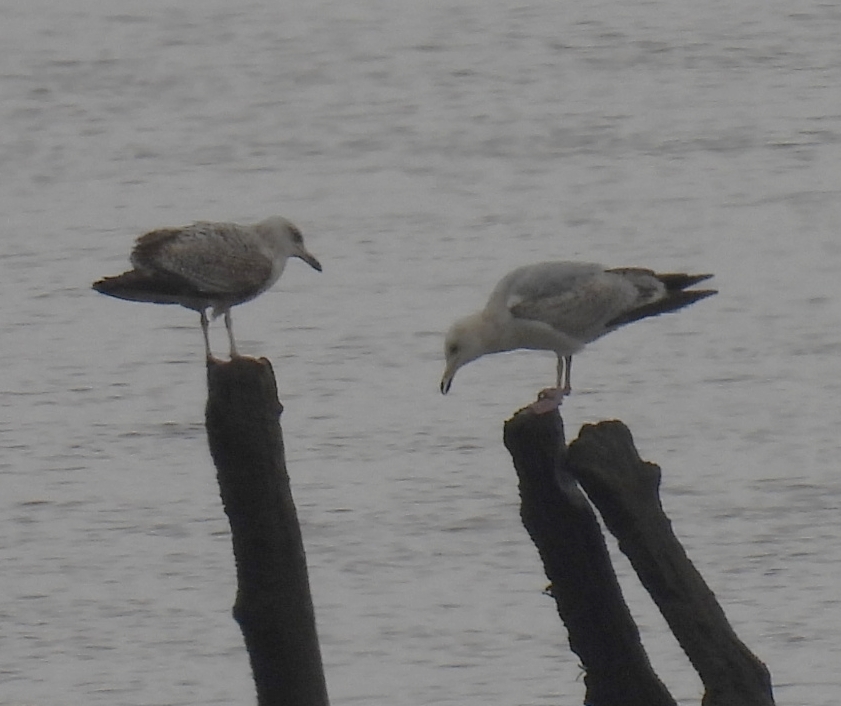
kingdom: Animalia
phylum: Chordata
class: Aves
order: Charadriiformes
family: Laridae
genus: Larus
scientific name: Larus argentatus
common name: Herring gull
